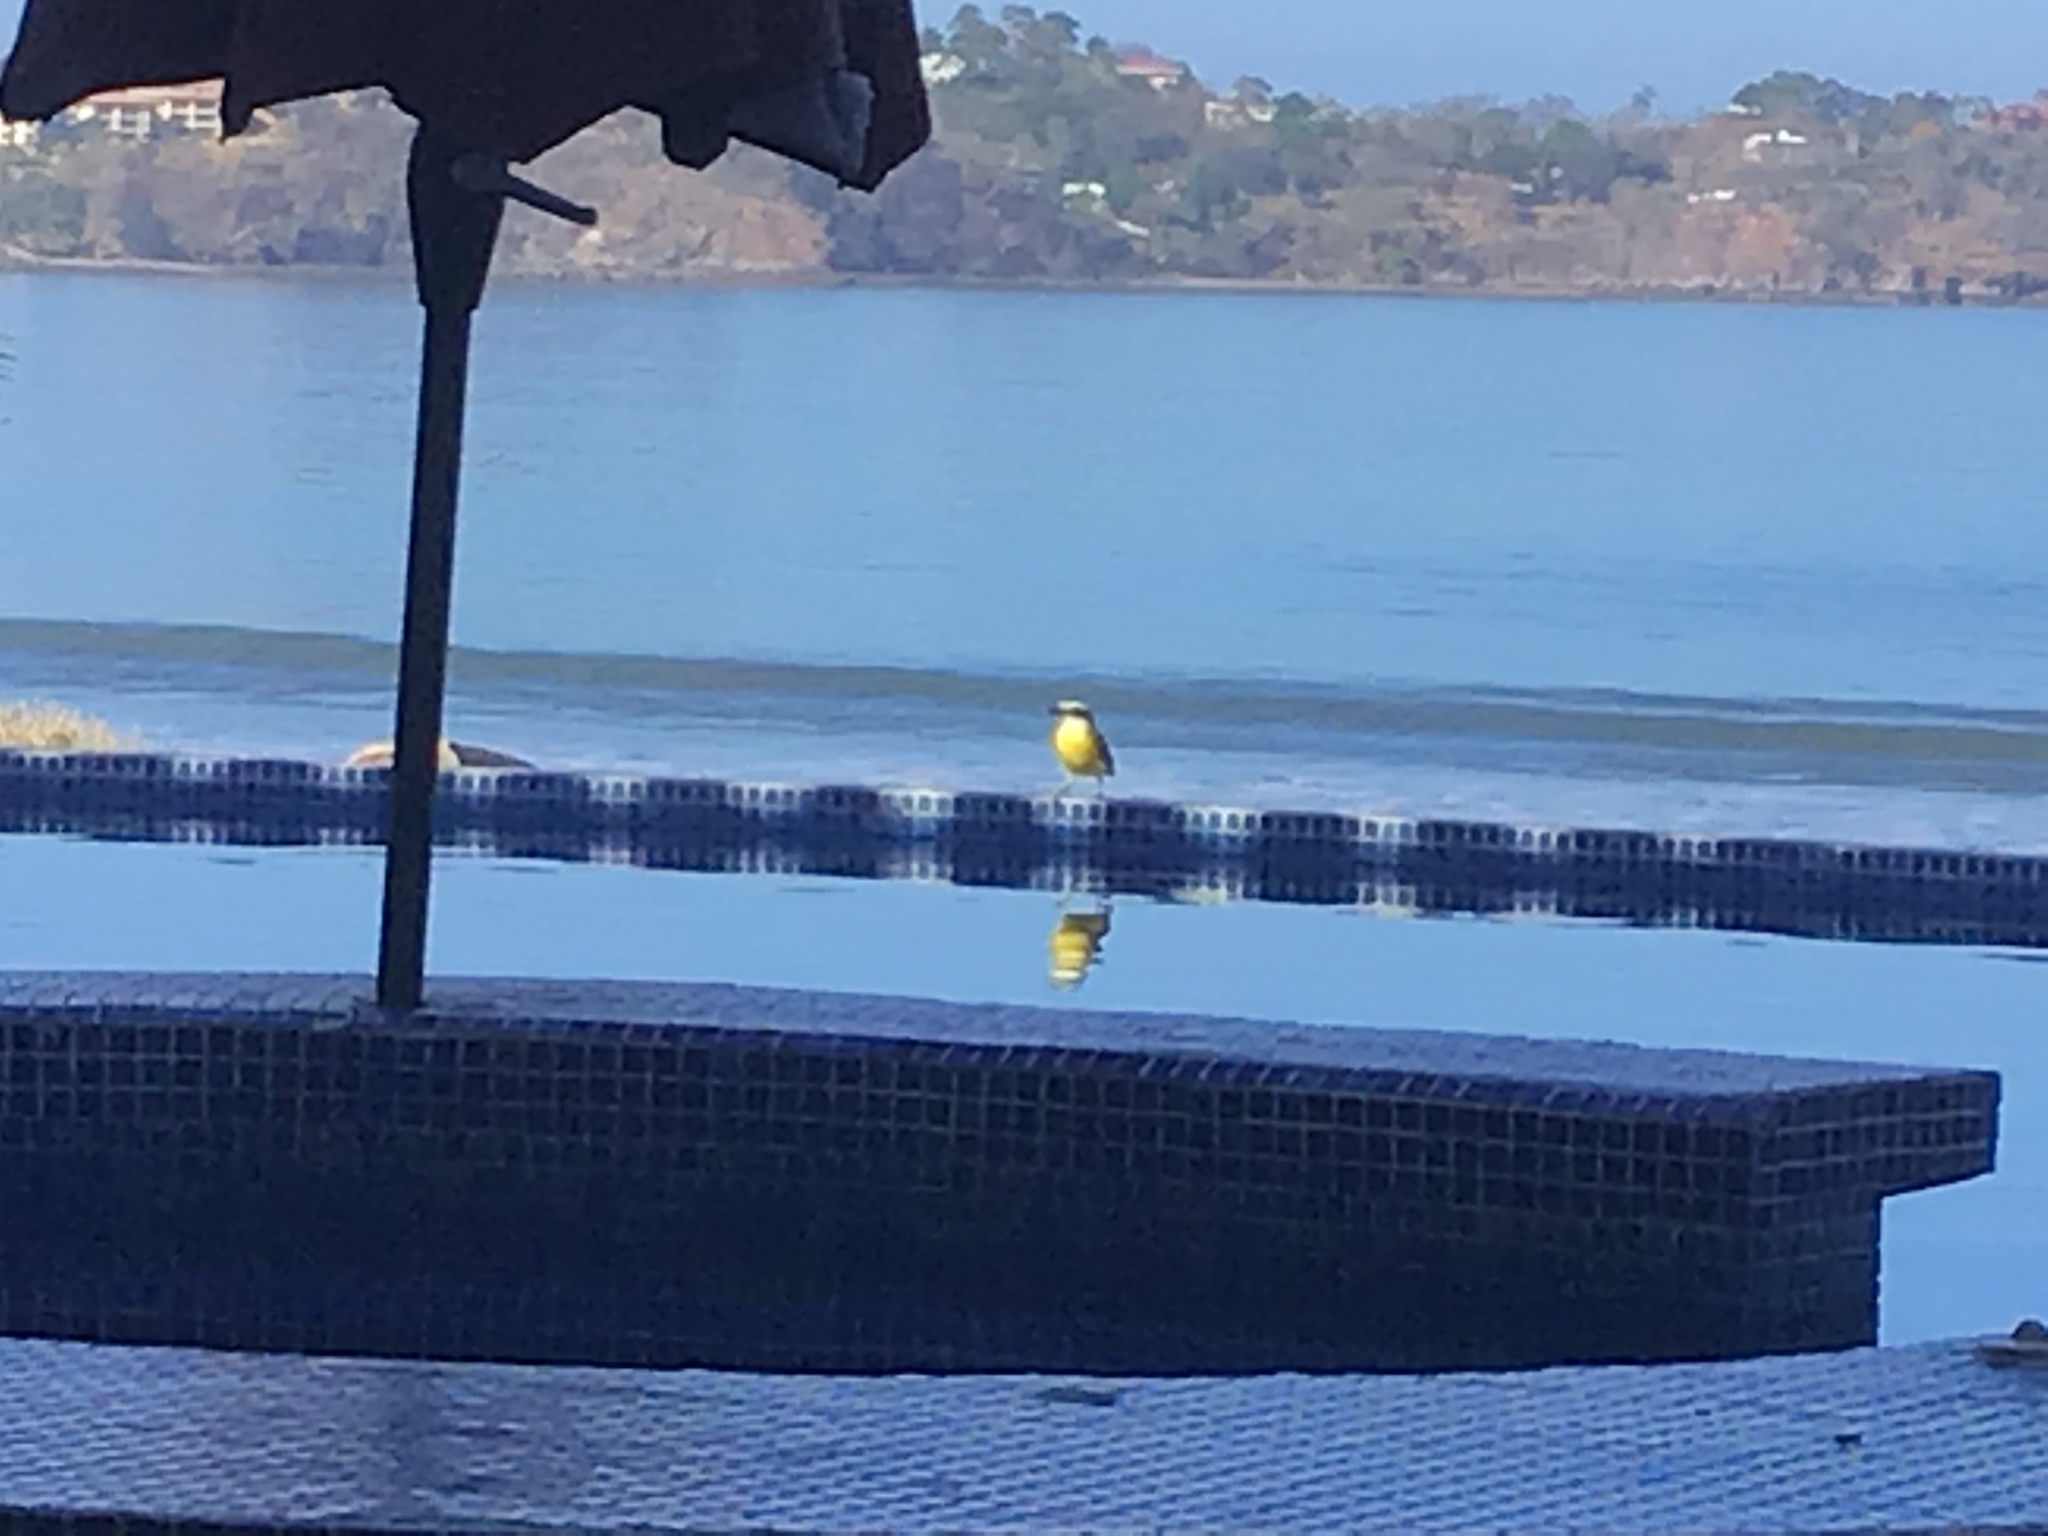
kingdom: Animalia
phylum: Chordata
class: Aves
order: Passeriformes
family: Tyrannidae
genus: Pitangus
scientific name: Pitangus sulphuratus
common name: Great kiskadee
